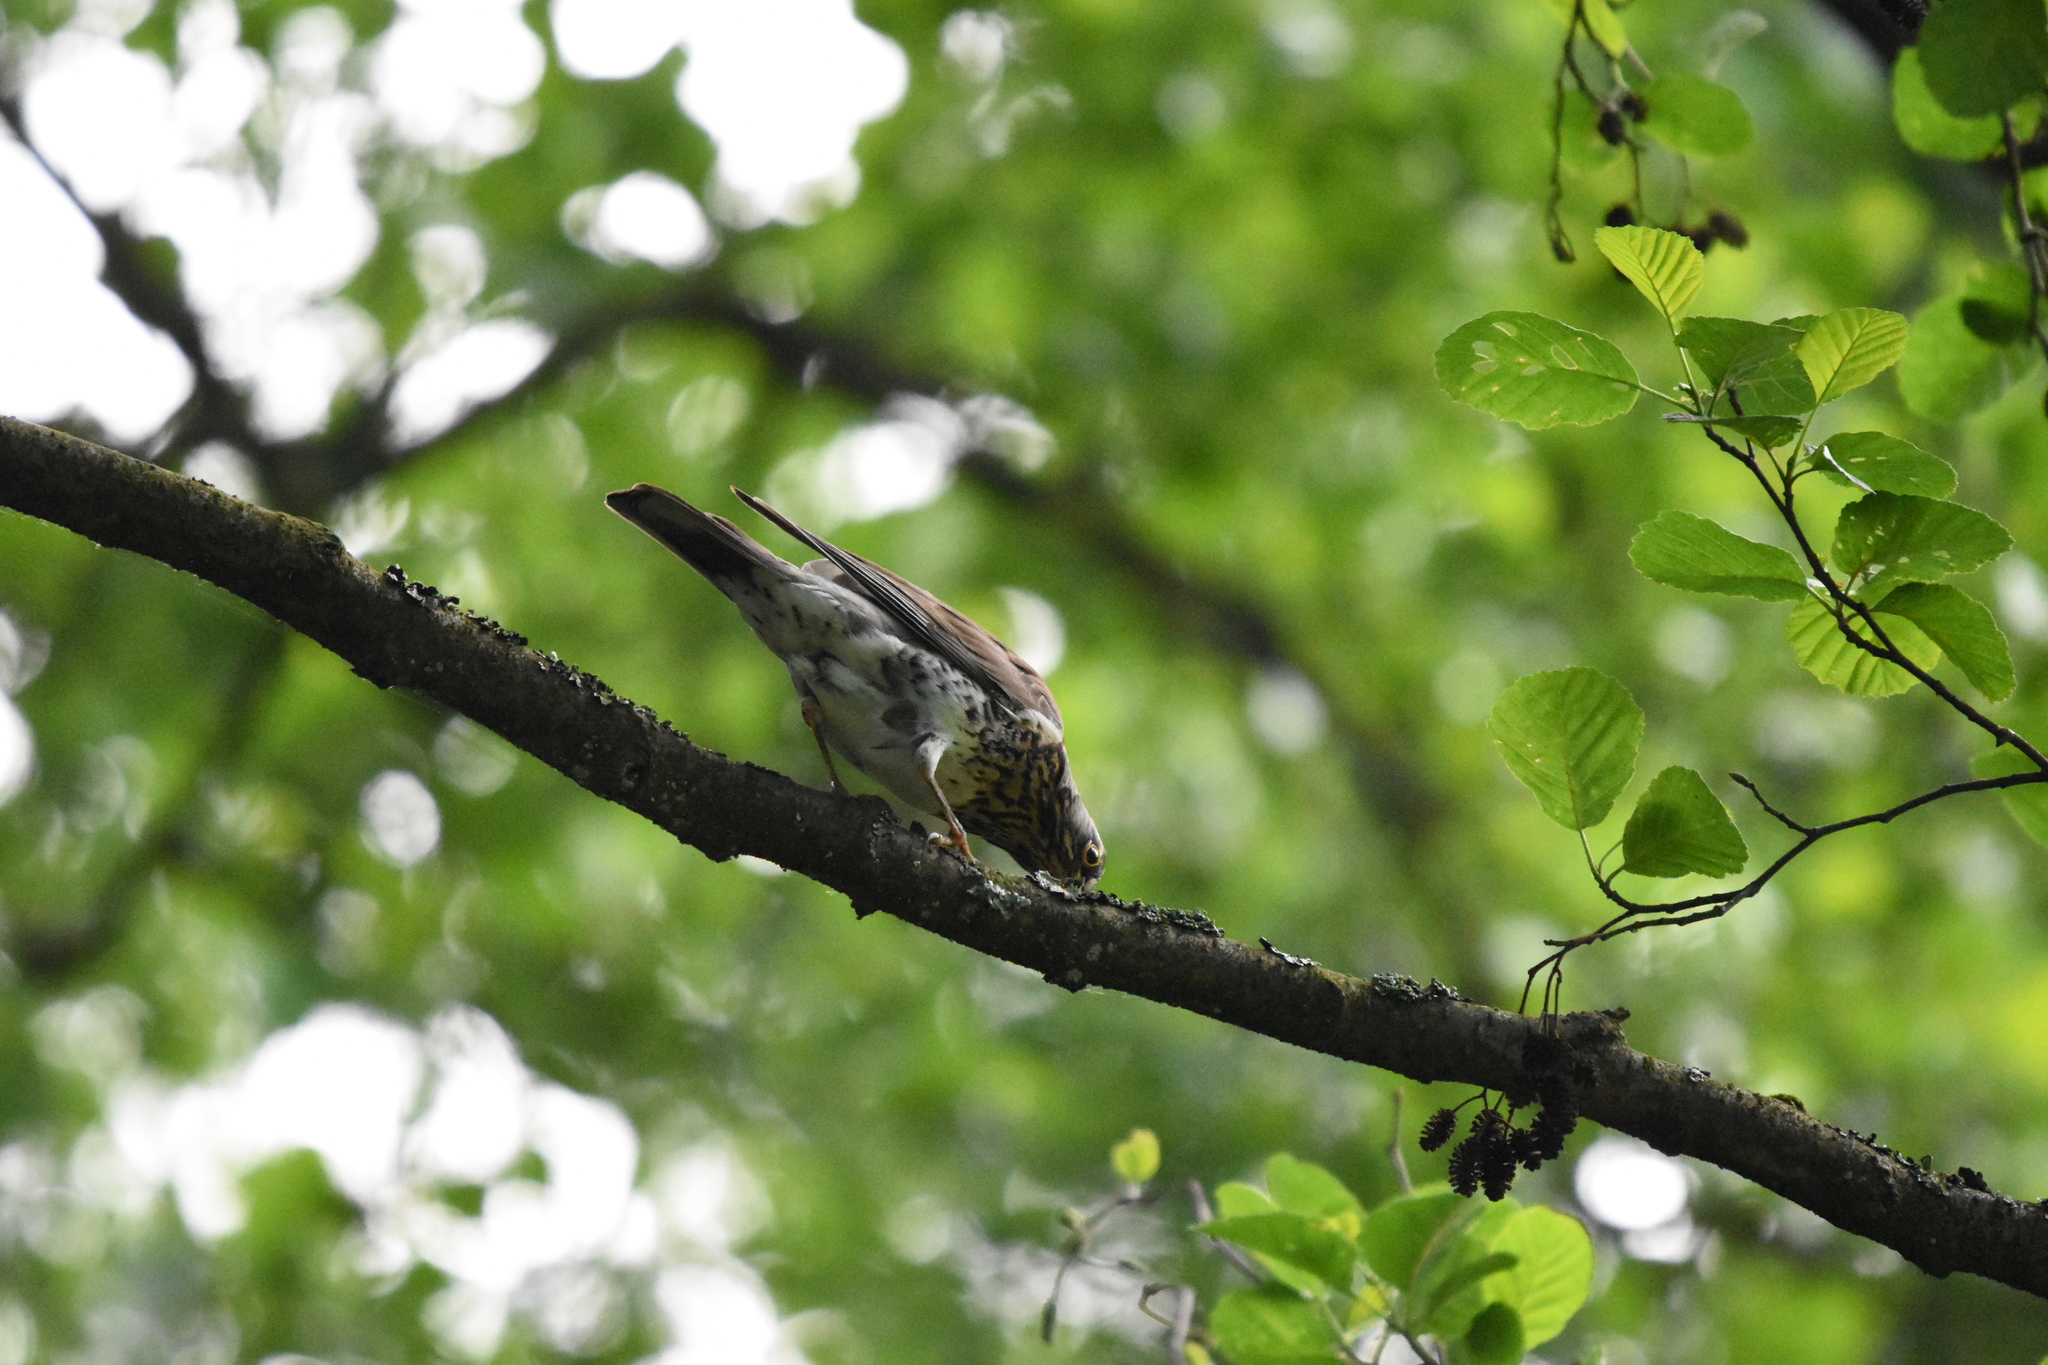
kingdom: Animalia
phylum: Chordata
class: Aves
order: Passeriformes
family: Turdidae
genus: Turdus
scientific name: Turdus pilaris
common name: Fieldfare
